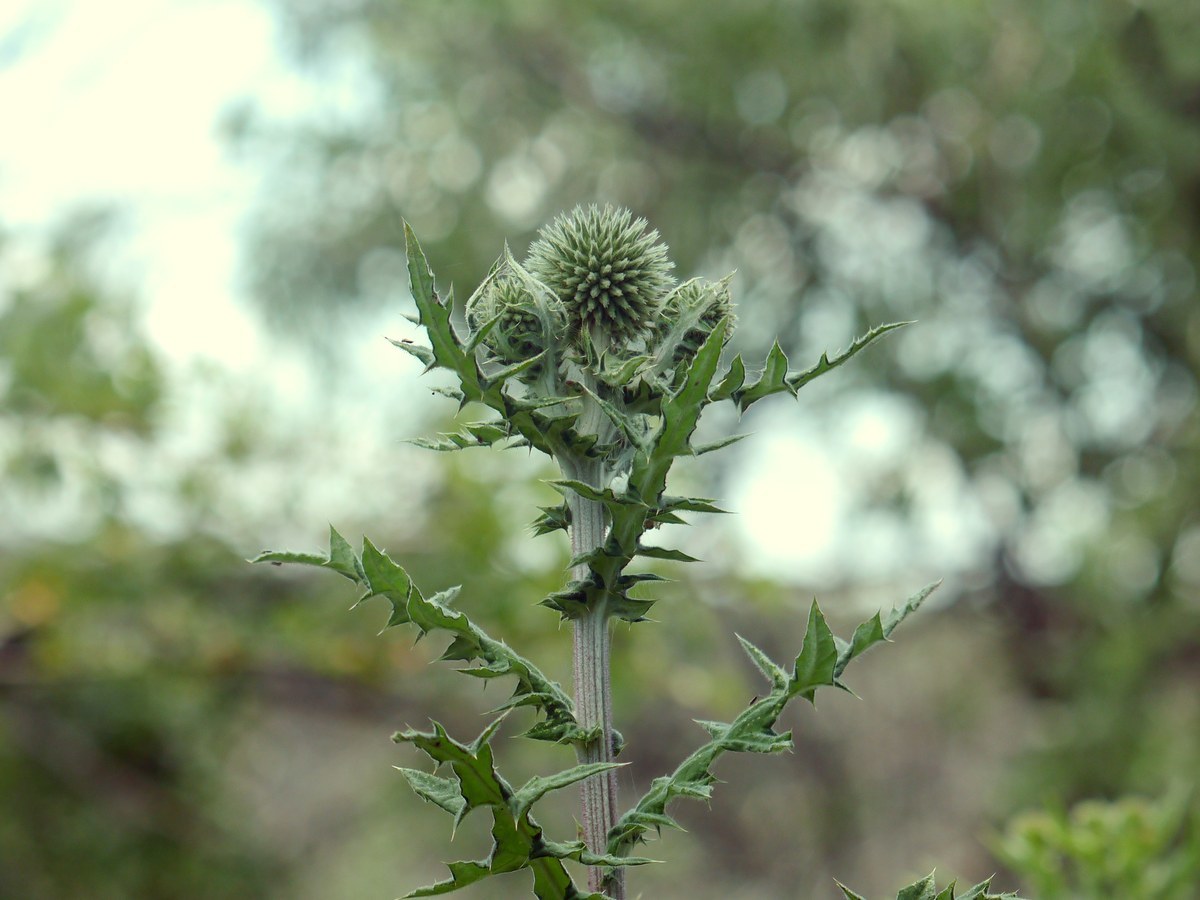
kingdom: Plantae
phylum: Tracheophyta
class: Magnoliopsida
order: Asterales
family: Asteraceae
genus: Echinops
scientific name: Echinops sphaerocephalus
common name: Glandular globe-thistle
